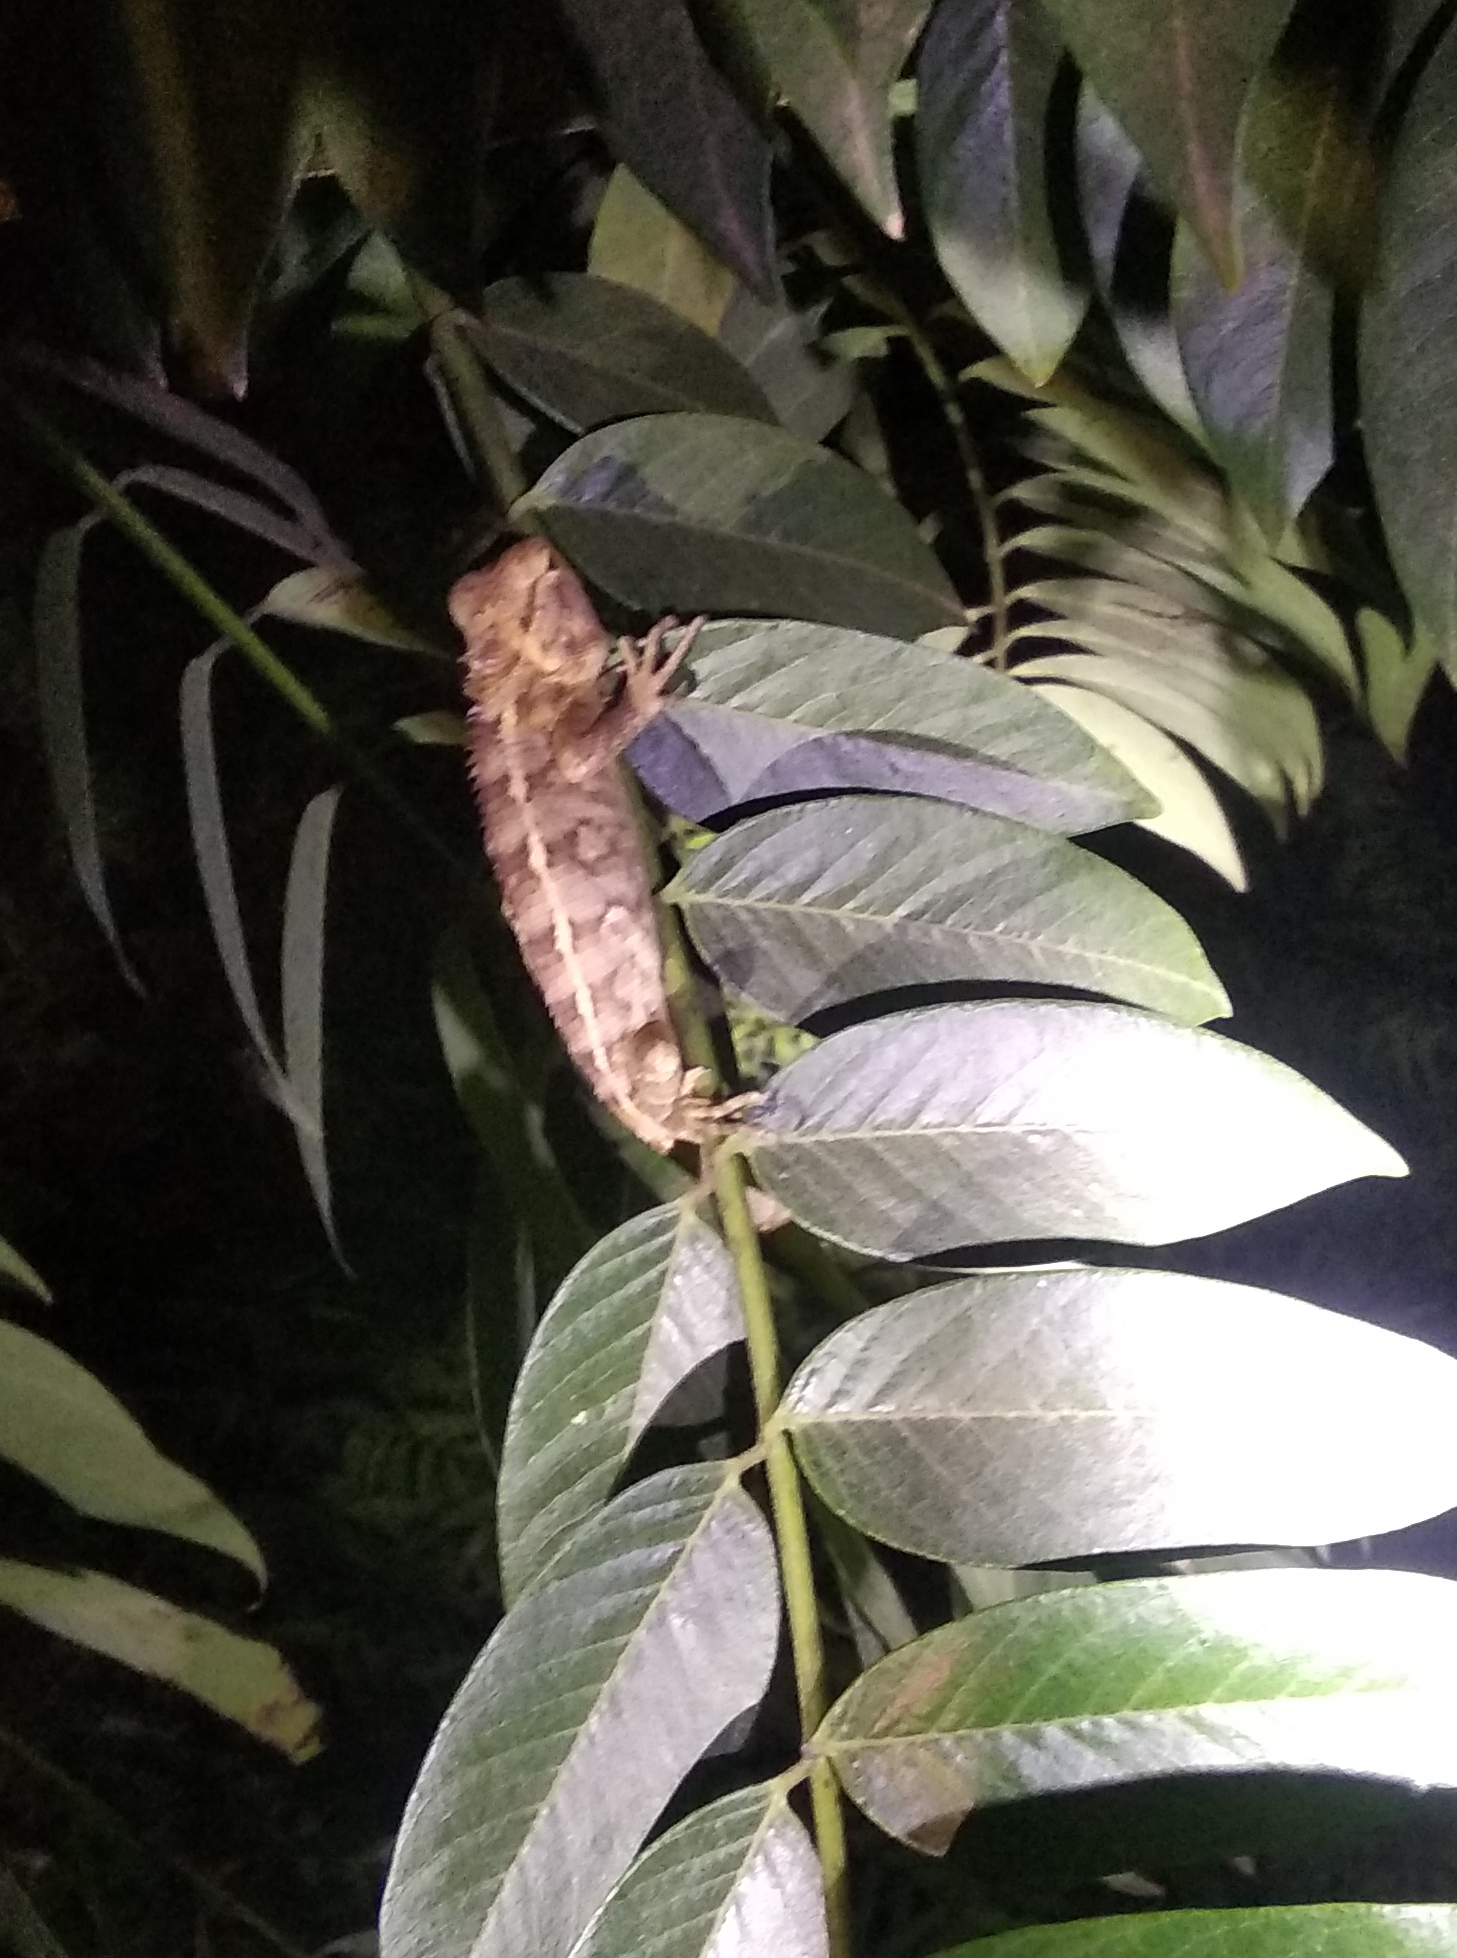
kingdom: Animalia
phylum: Chordata
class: Squamata
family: Agamidae
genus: Calotes
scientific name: Calotes versicolor
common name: Oriental garden lizard
